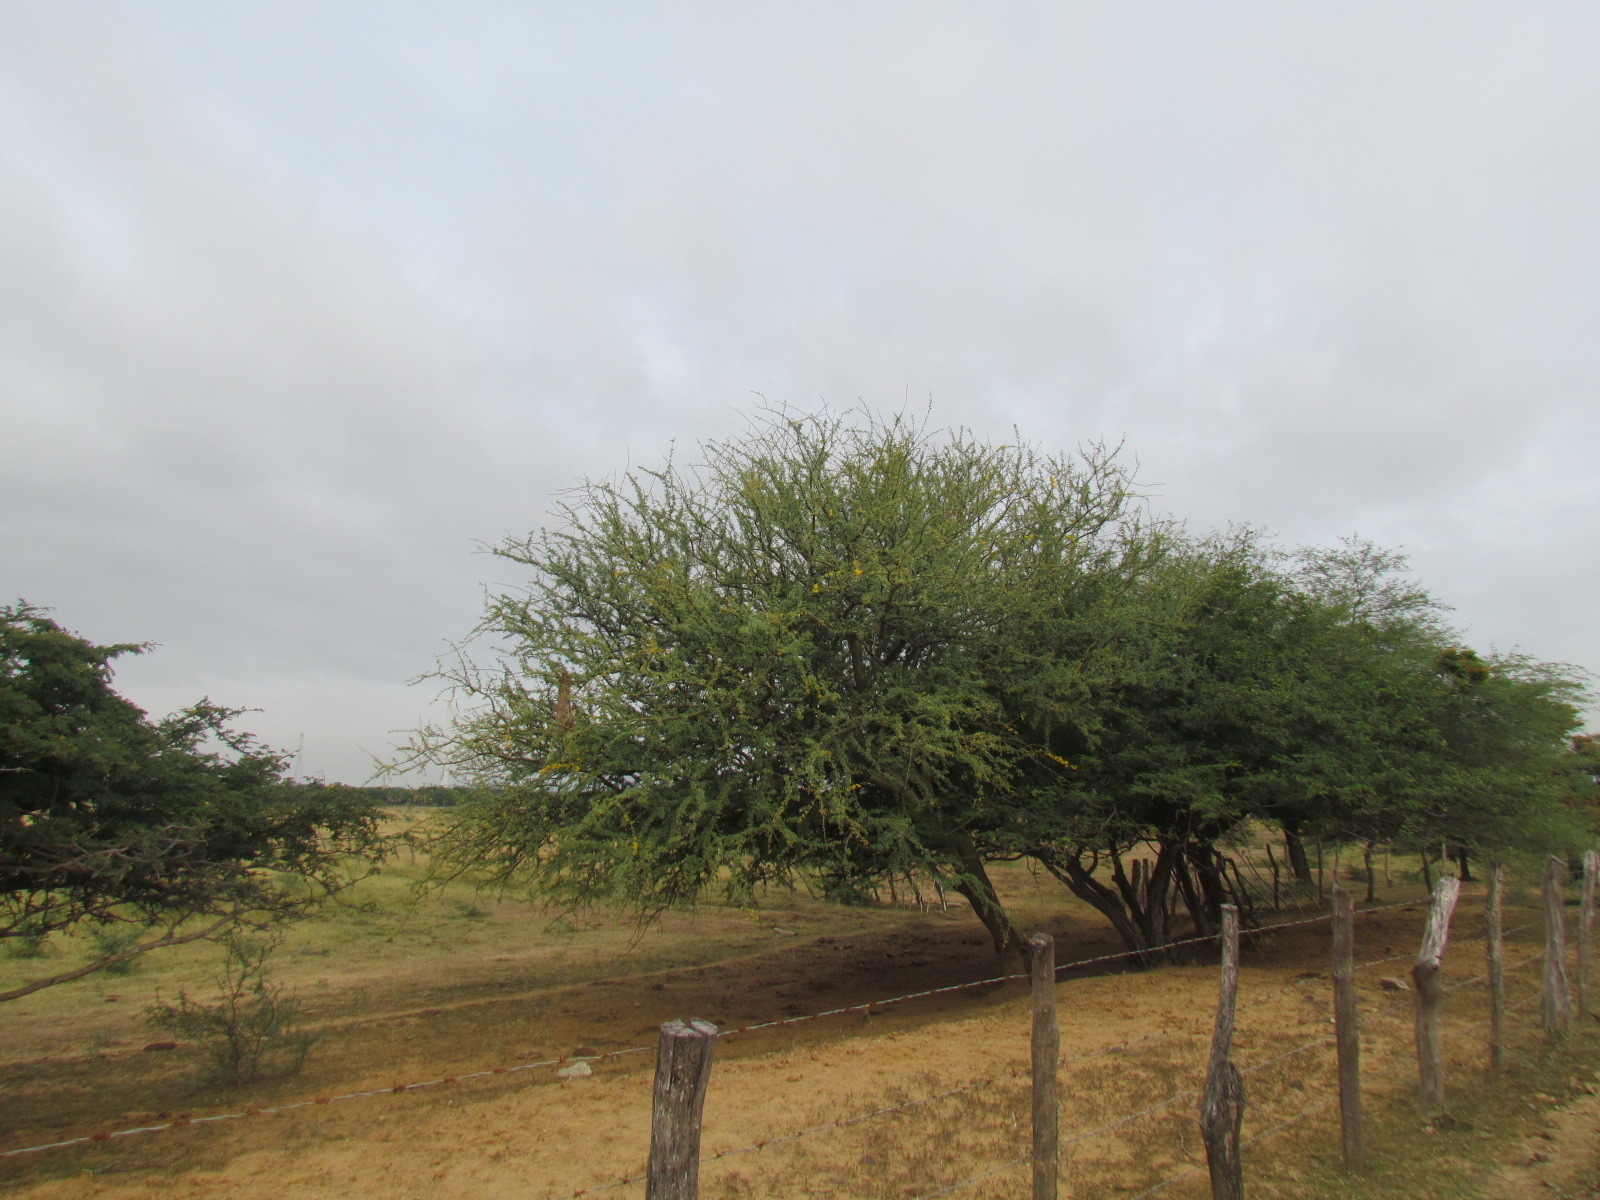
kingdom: Plantae
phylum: Tracheophyta
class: Magnoliopsida
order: Fabales
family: Fabaceae
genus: Parkinsonia
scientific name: Parkinsonia praecox
